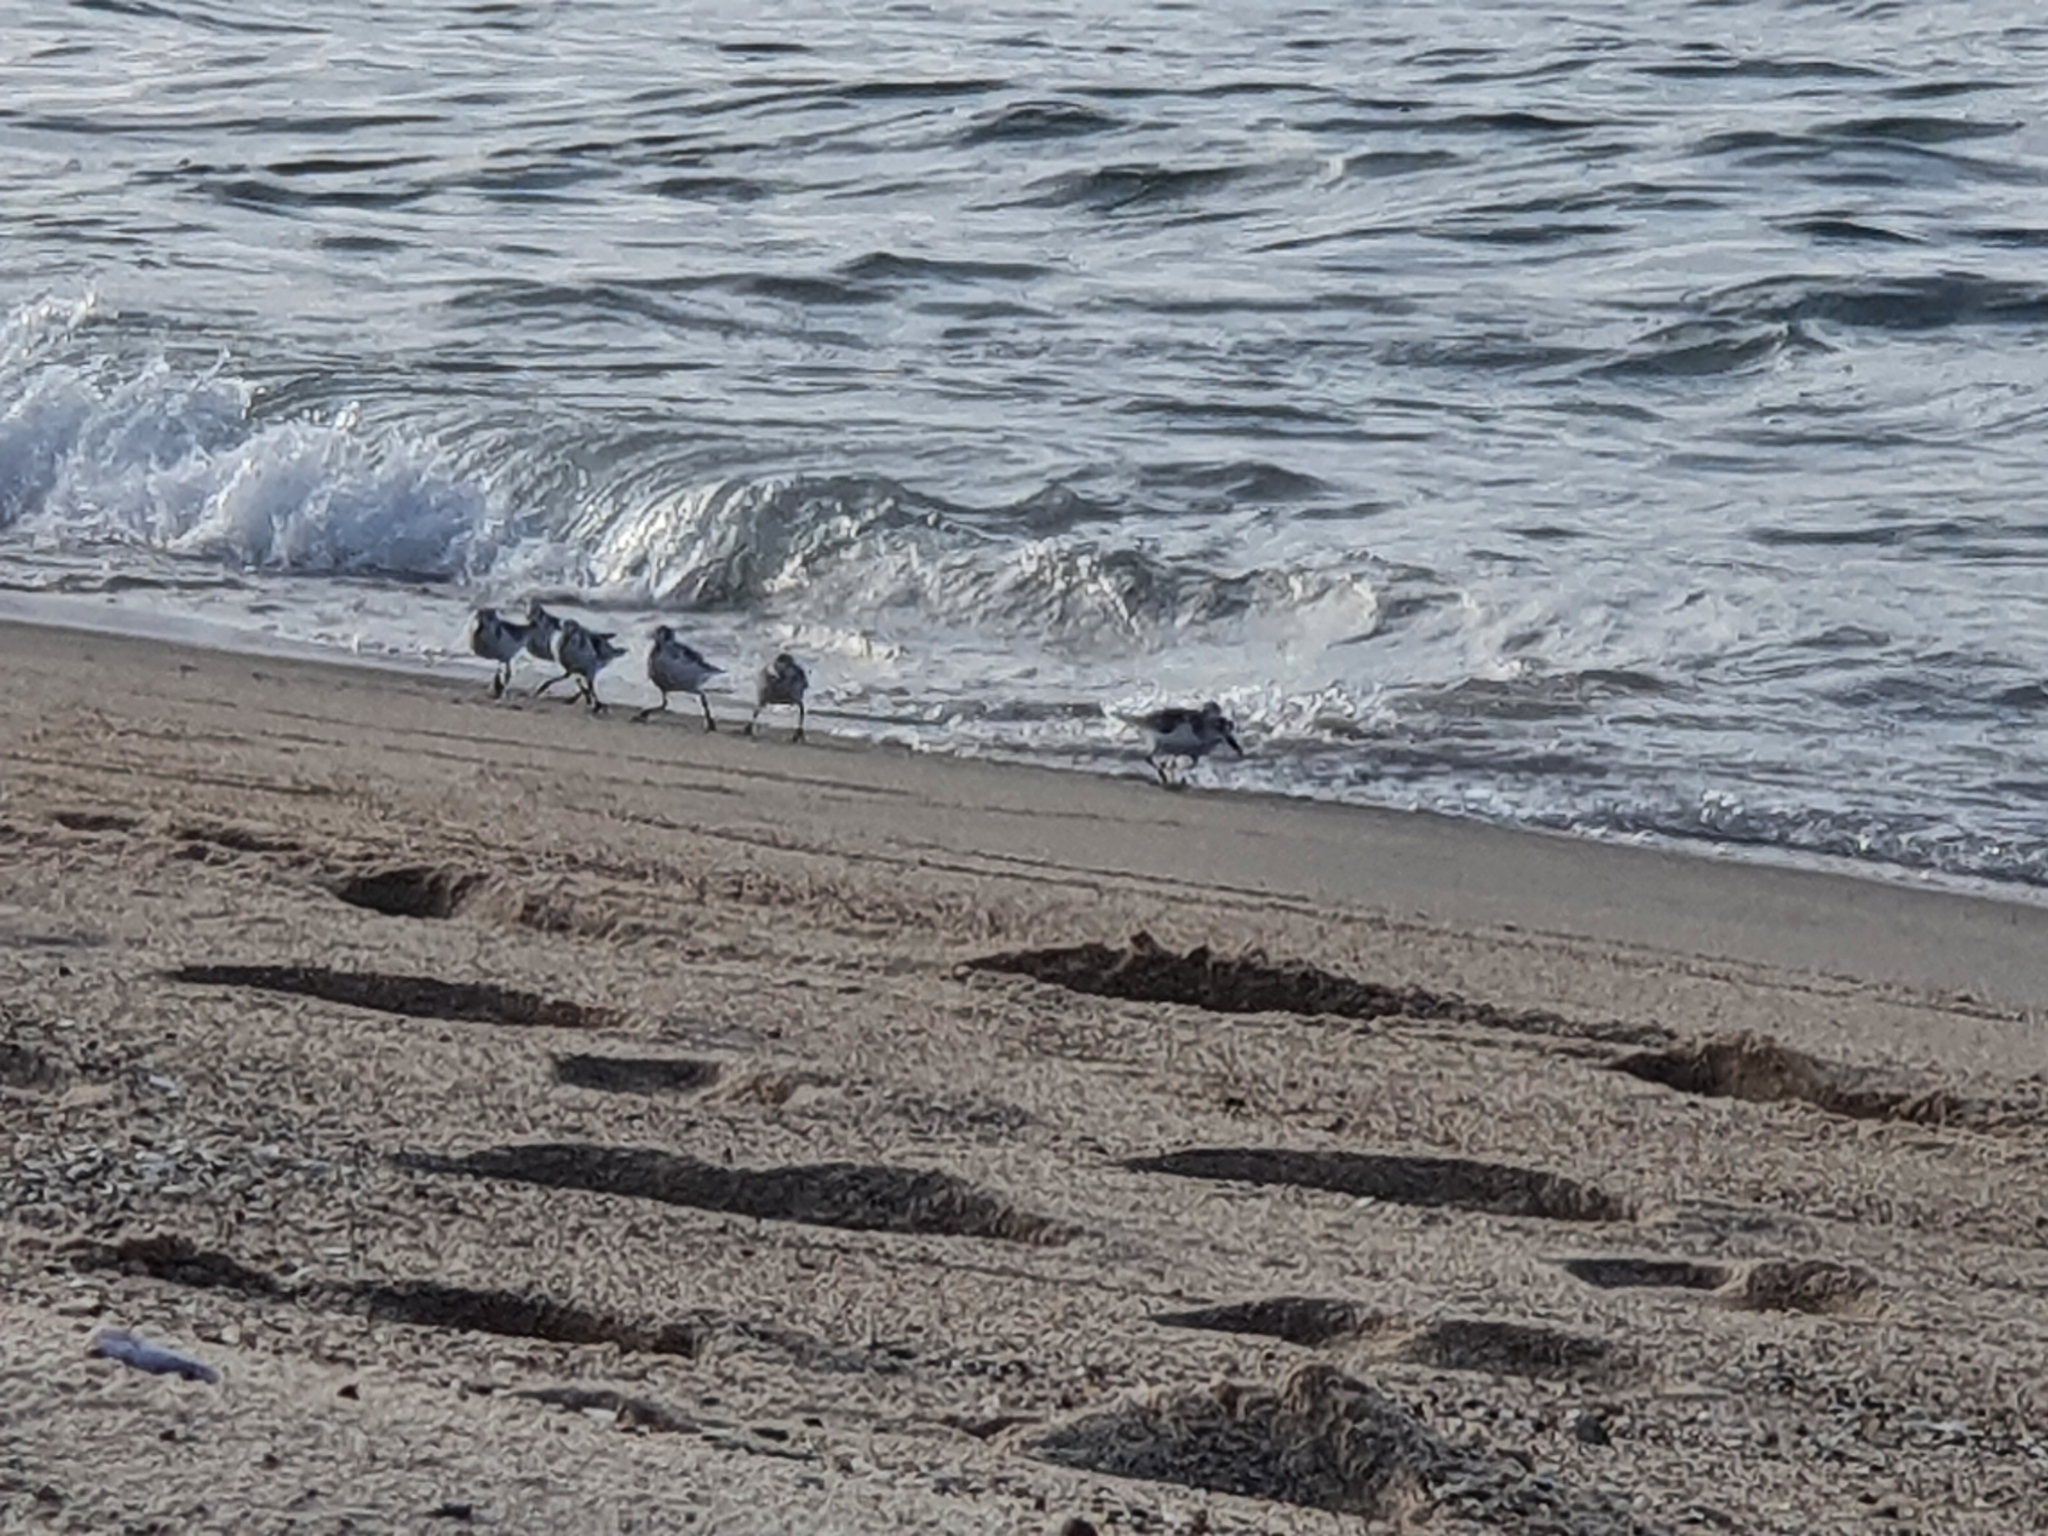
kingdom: Animalia
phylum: Chordata
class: Aves
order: Charadriiformes
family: Scolopacidae
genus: Calidris
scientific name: Calidris alba
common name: Sanderling
